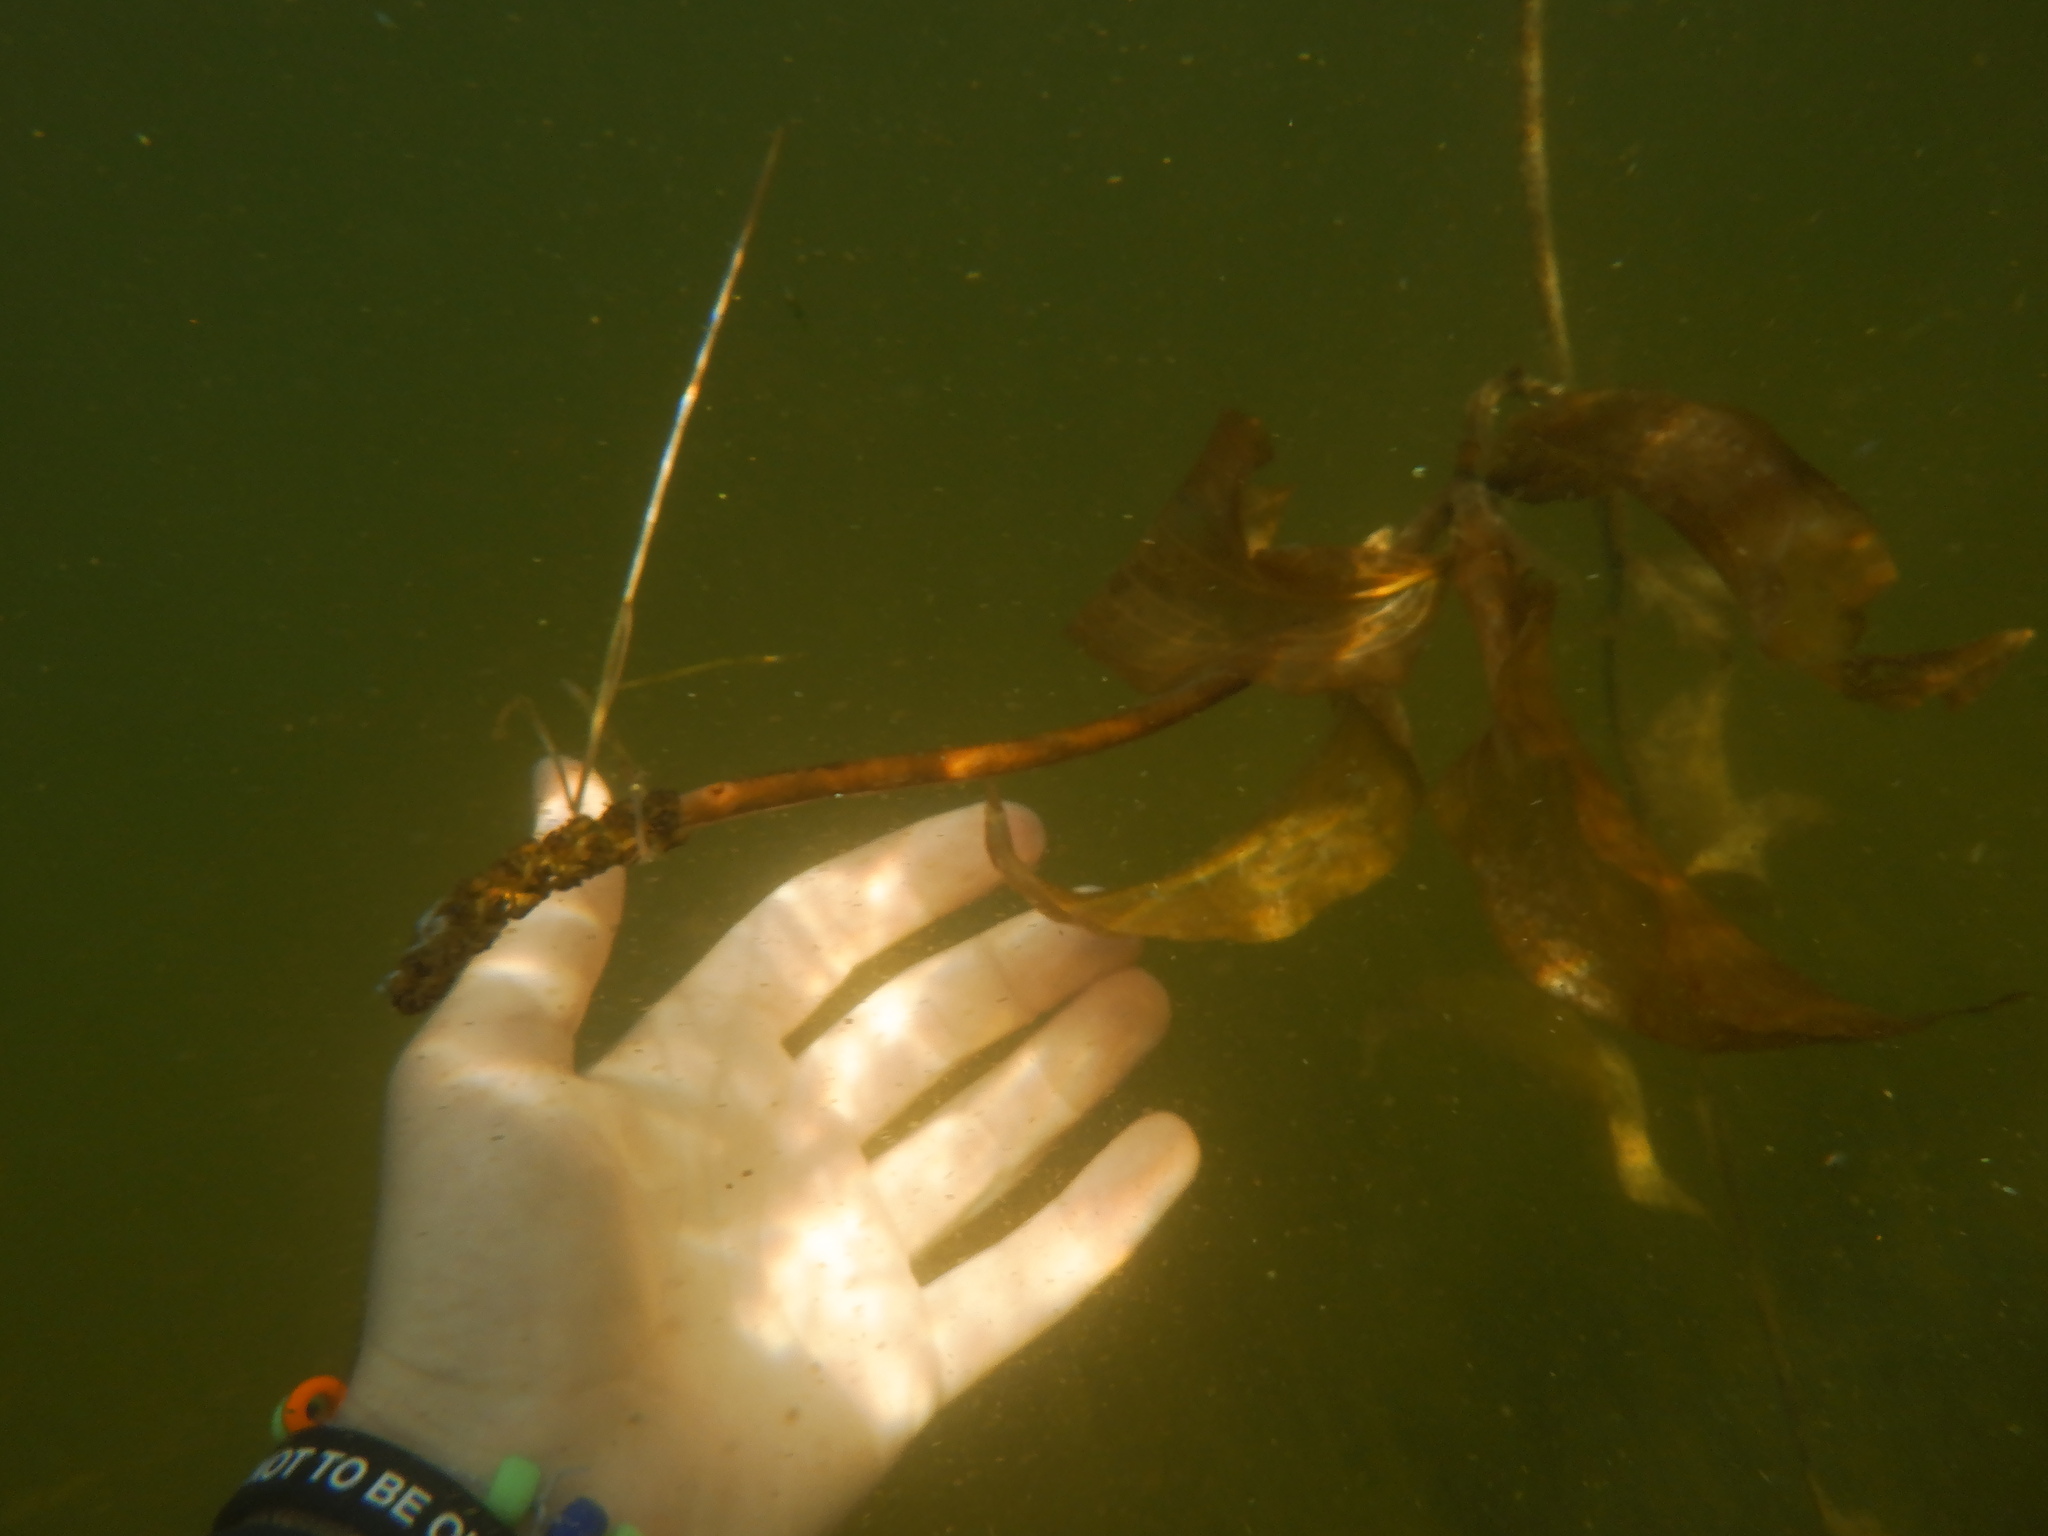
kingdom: Plantae
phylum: Tracheophyta
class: Liliopsida
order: Alismatales
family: Potamogetonaceae
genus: Potamogeton
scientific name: Potamogeton amplifolius
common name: Broad-leaved pondweed
